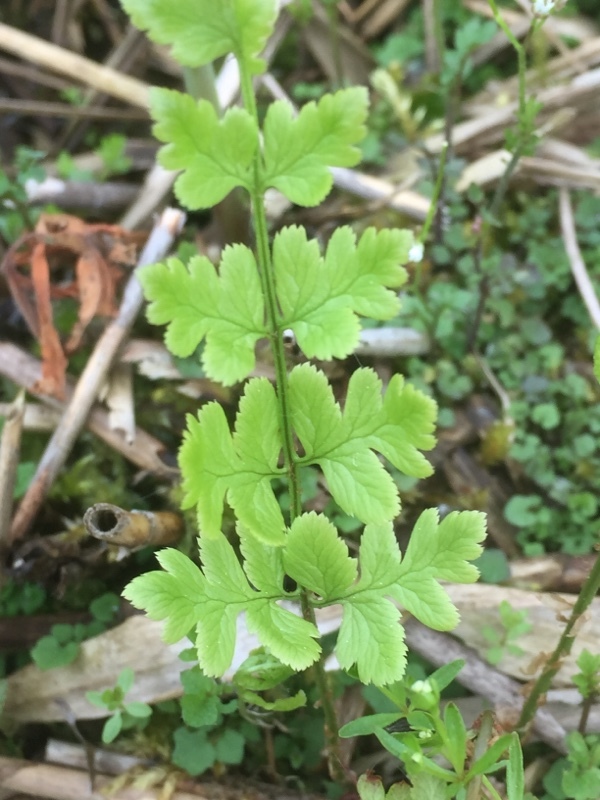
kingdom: Plantae
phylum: Tracheophyta
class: Polypodiopsida
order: Polypodiales
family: Dryopteridaceae
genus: Dryopteris
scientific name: Dryopteris cristata
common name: Crested wood fern
